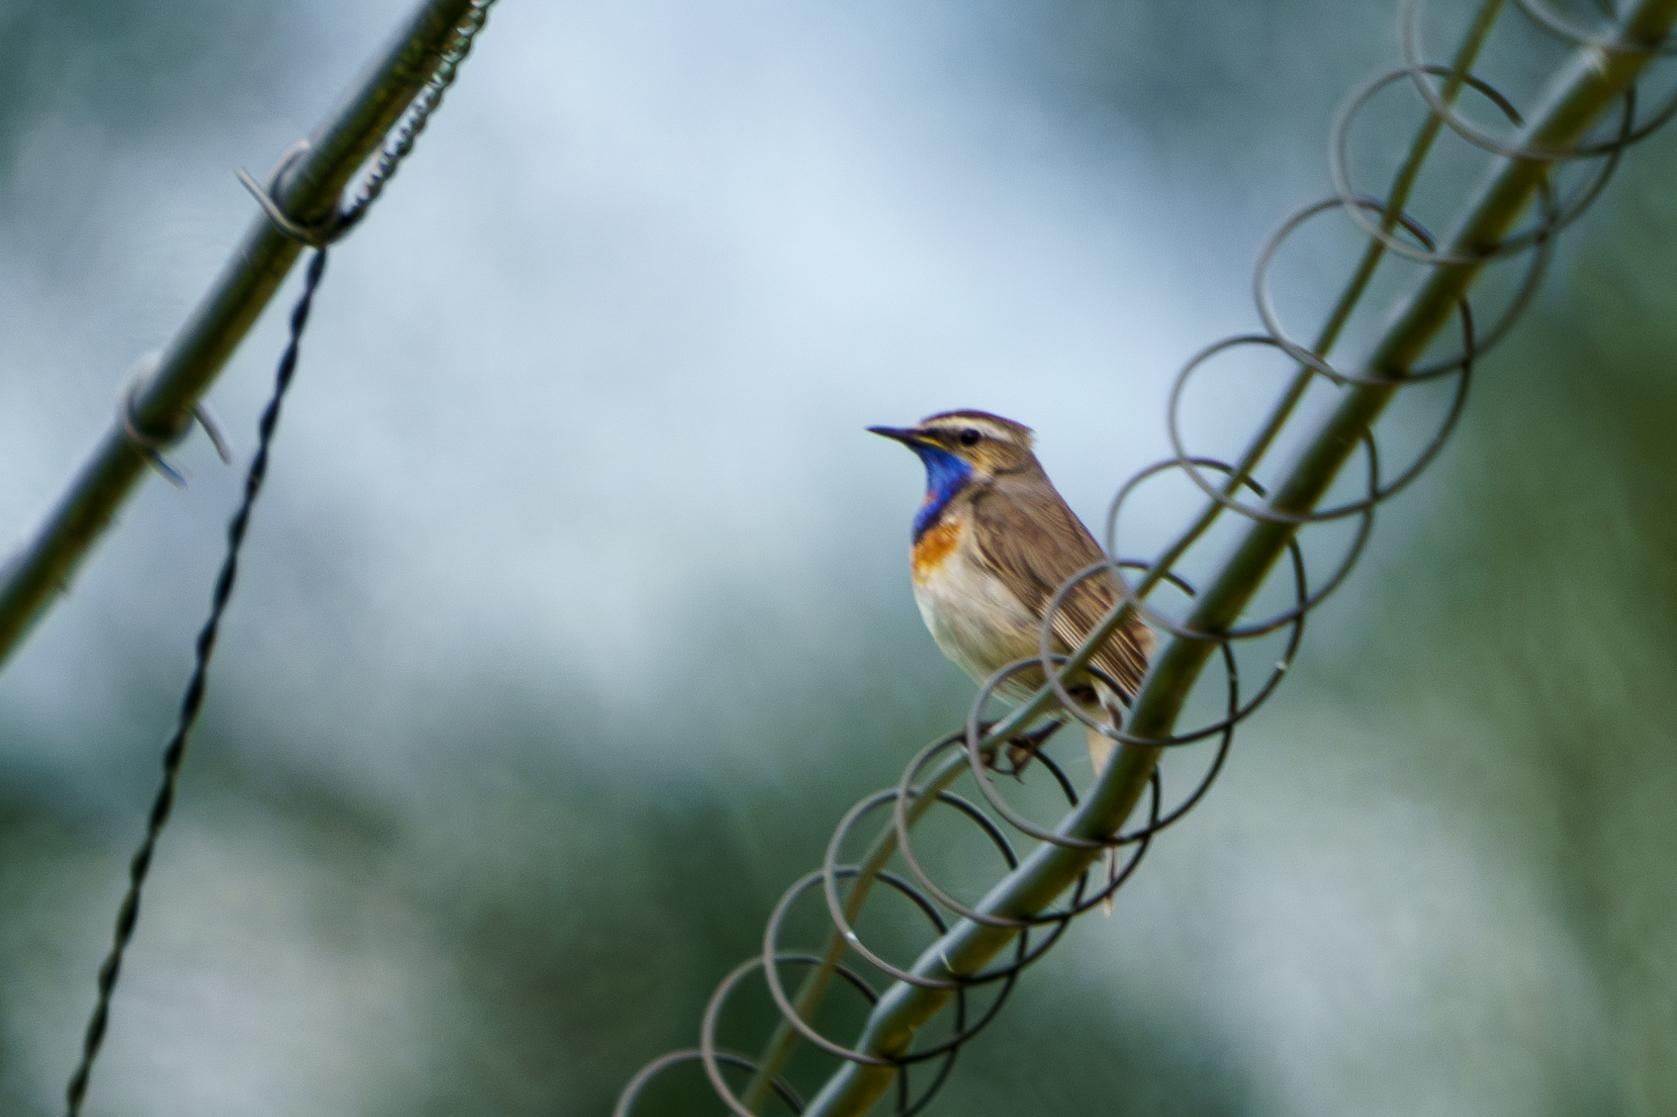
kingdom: Animalia
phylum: Chordata
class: Aves
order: Passeriformes
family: Muscicapidae
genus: Luscinia
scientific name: Luscinia svecica
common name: Bluethroat
